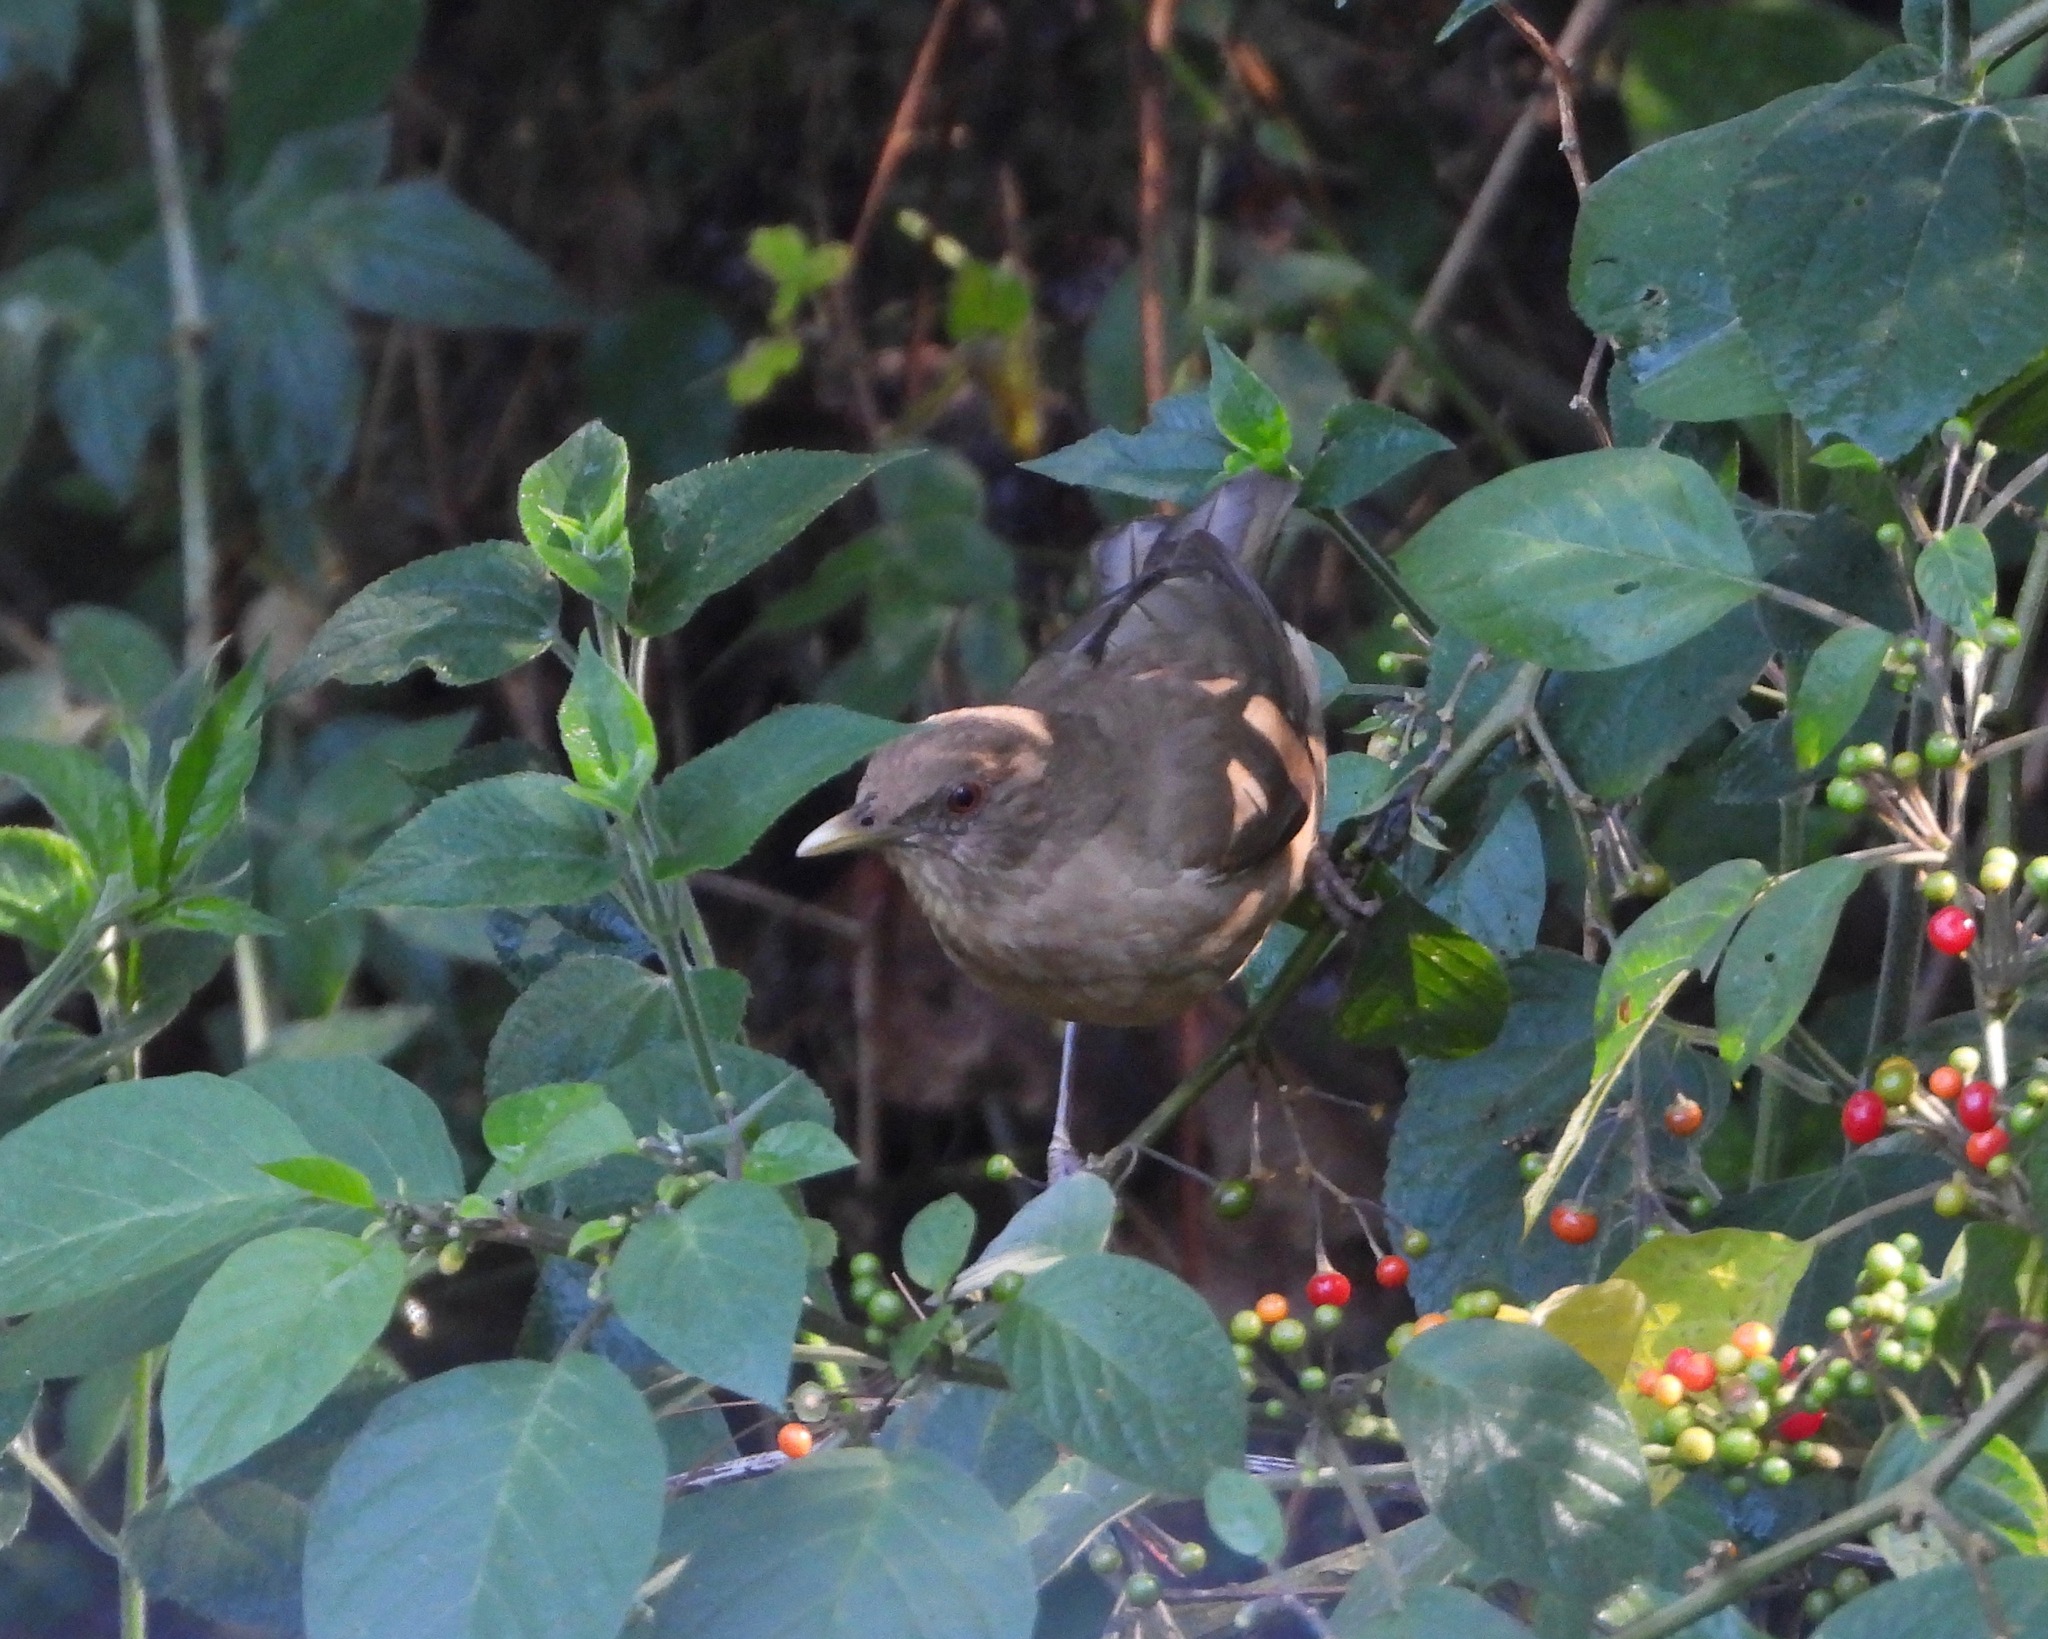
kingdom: Animalia
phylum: Chordata
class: Aves
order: Passeriformes
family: Turdidae
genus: Turdus
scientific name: Turdus grayi
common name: Clay-colored thrush
